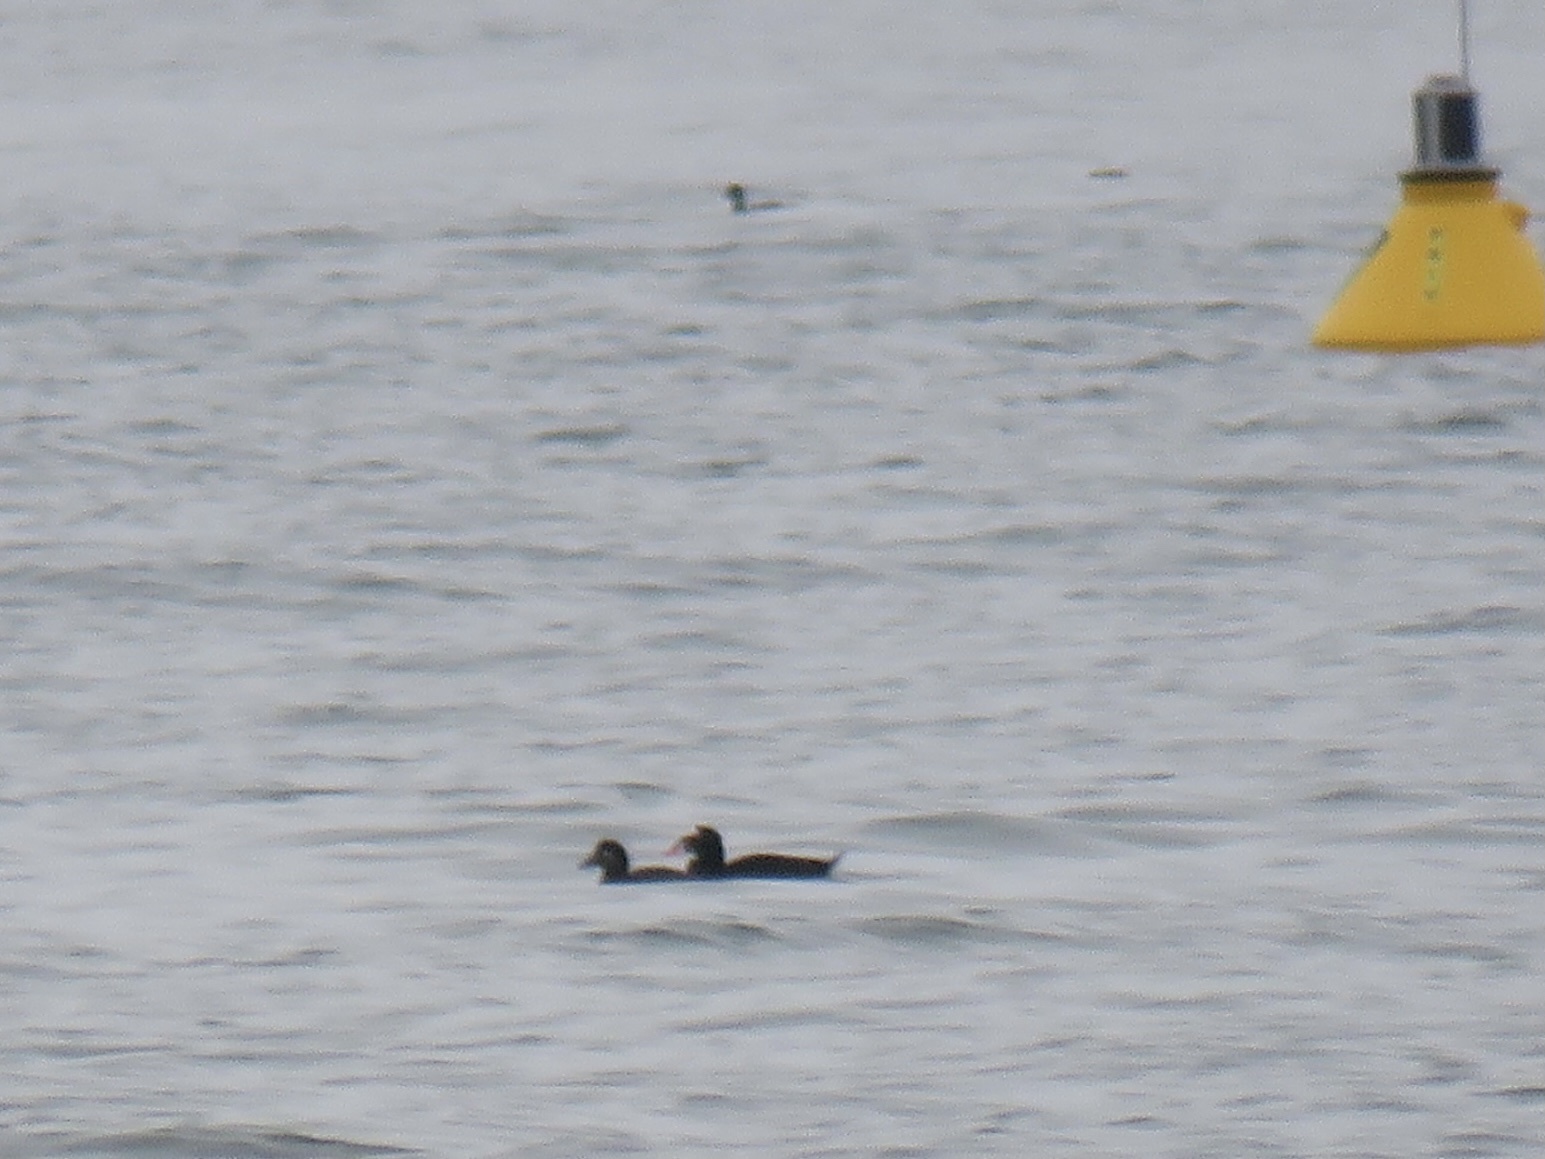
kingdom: Animalia
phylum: Chordata
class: Aves
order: Anseriformes
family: Anatidae
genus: Melanitta
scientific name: Melanitta perspicillata
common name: Surf scoter
